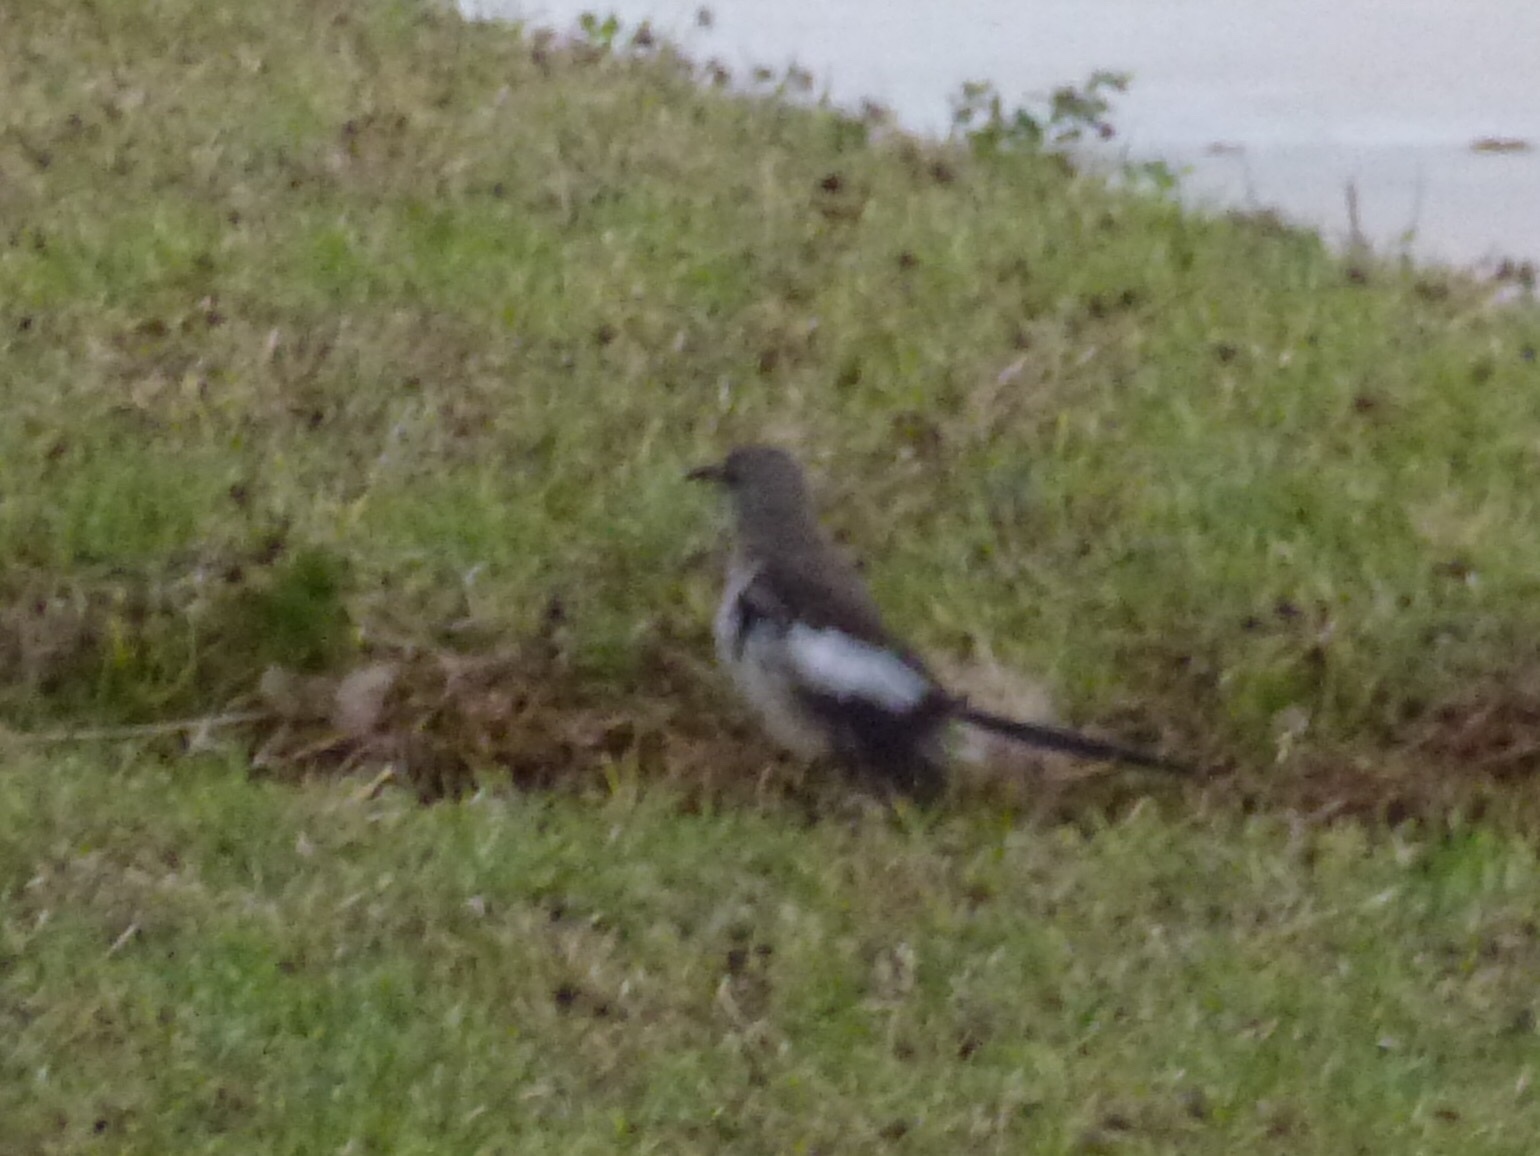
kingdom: Animalia
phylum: Chordata
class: Aves
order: Passeriformes
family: Mimidae
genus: Mimus
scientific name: Mimus polyglottos
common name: Northern mockingbird
